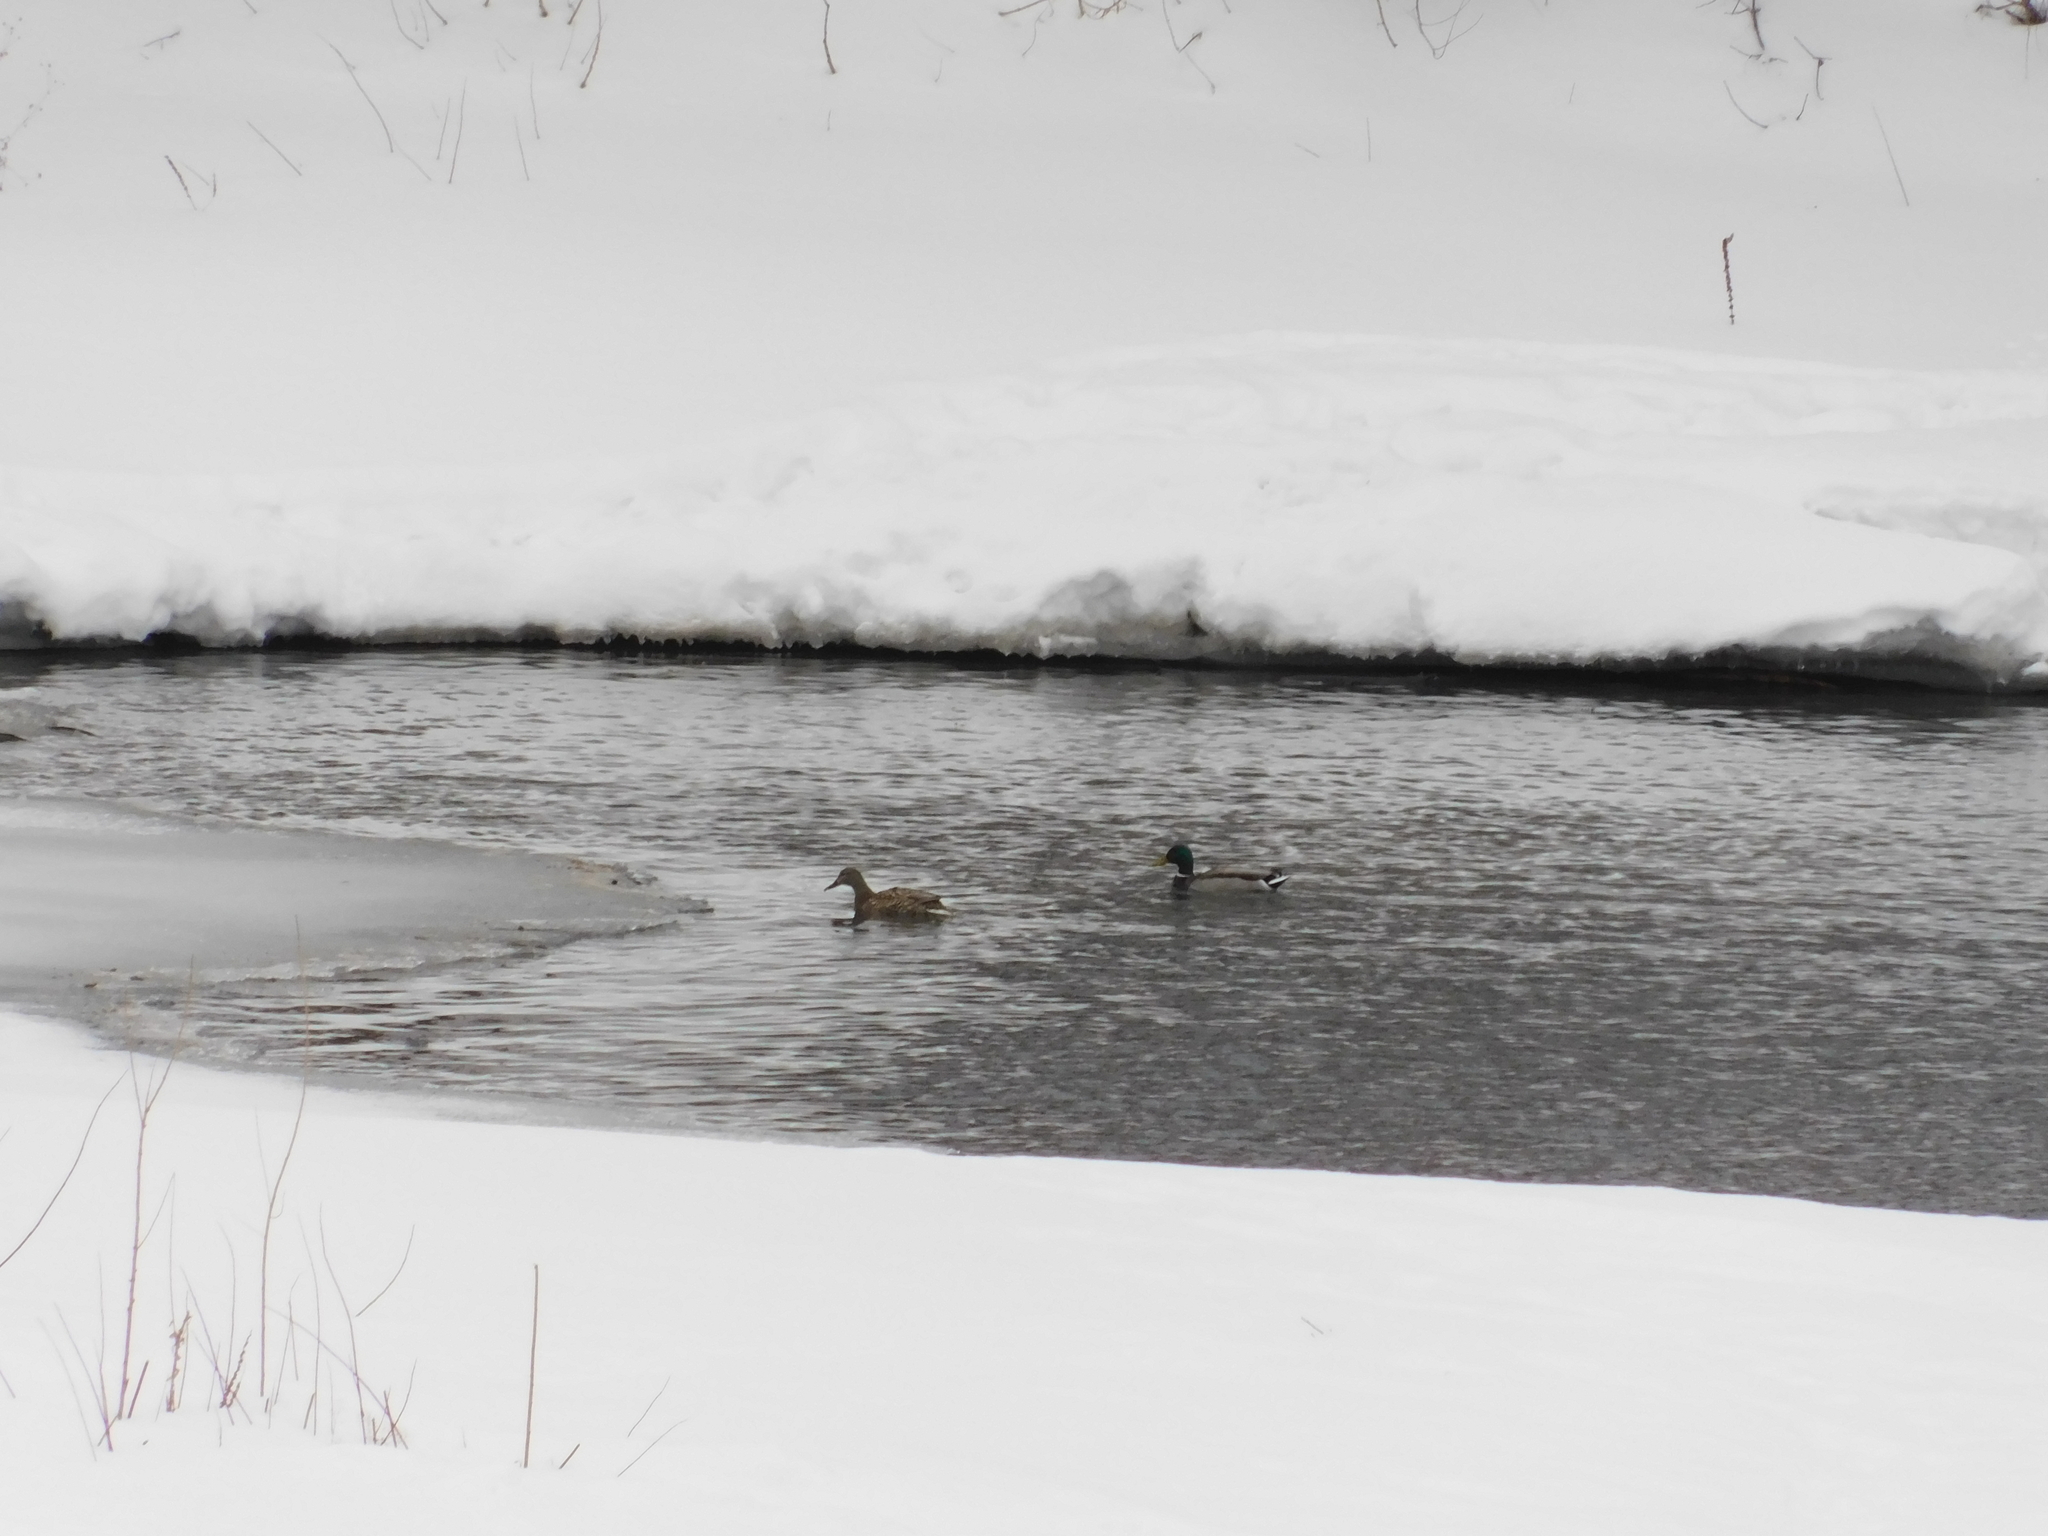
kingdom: Animalia
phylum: Chordata
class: Aves
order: Anseriformes
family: Anatidae
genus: Anas
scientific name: Anas platyrhynchos
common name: Mallard
